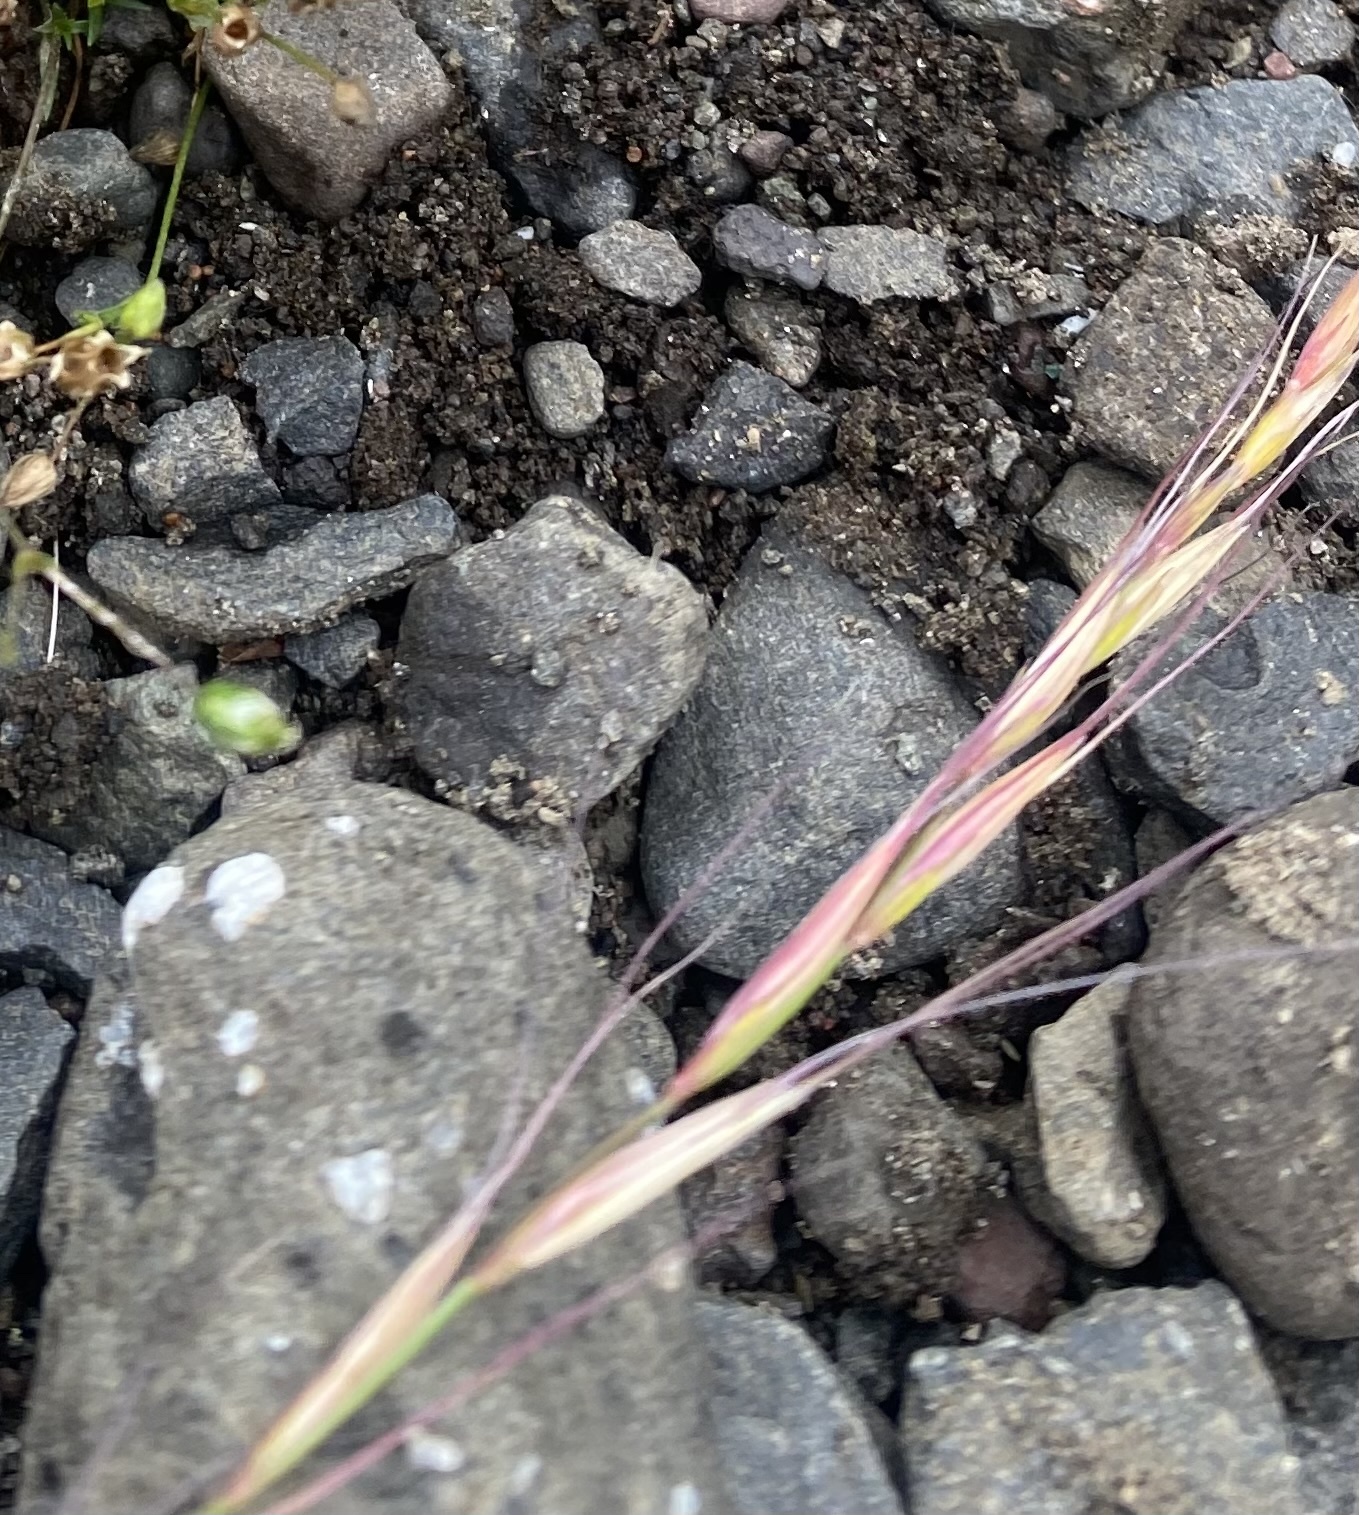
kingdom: Plantae
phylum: Tracheophyta
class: Liliopsida
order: Poales
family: Poaceae
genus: Elymus
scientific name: Elymus confusus
